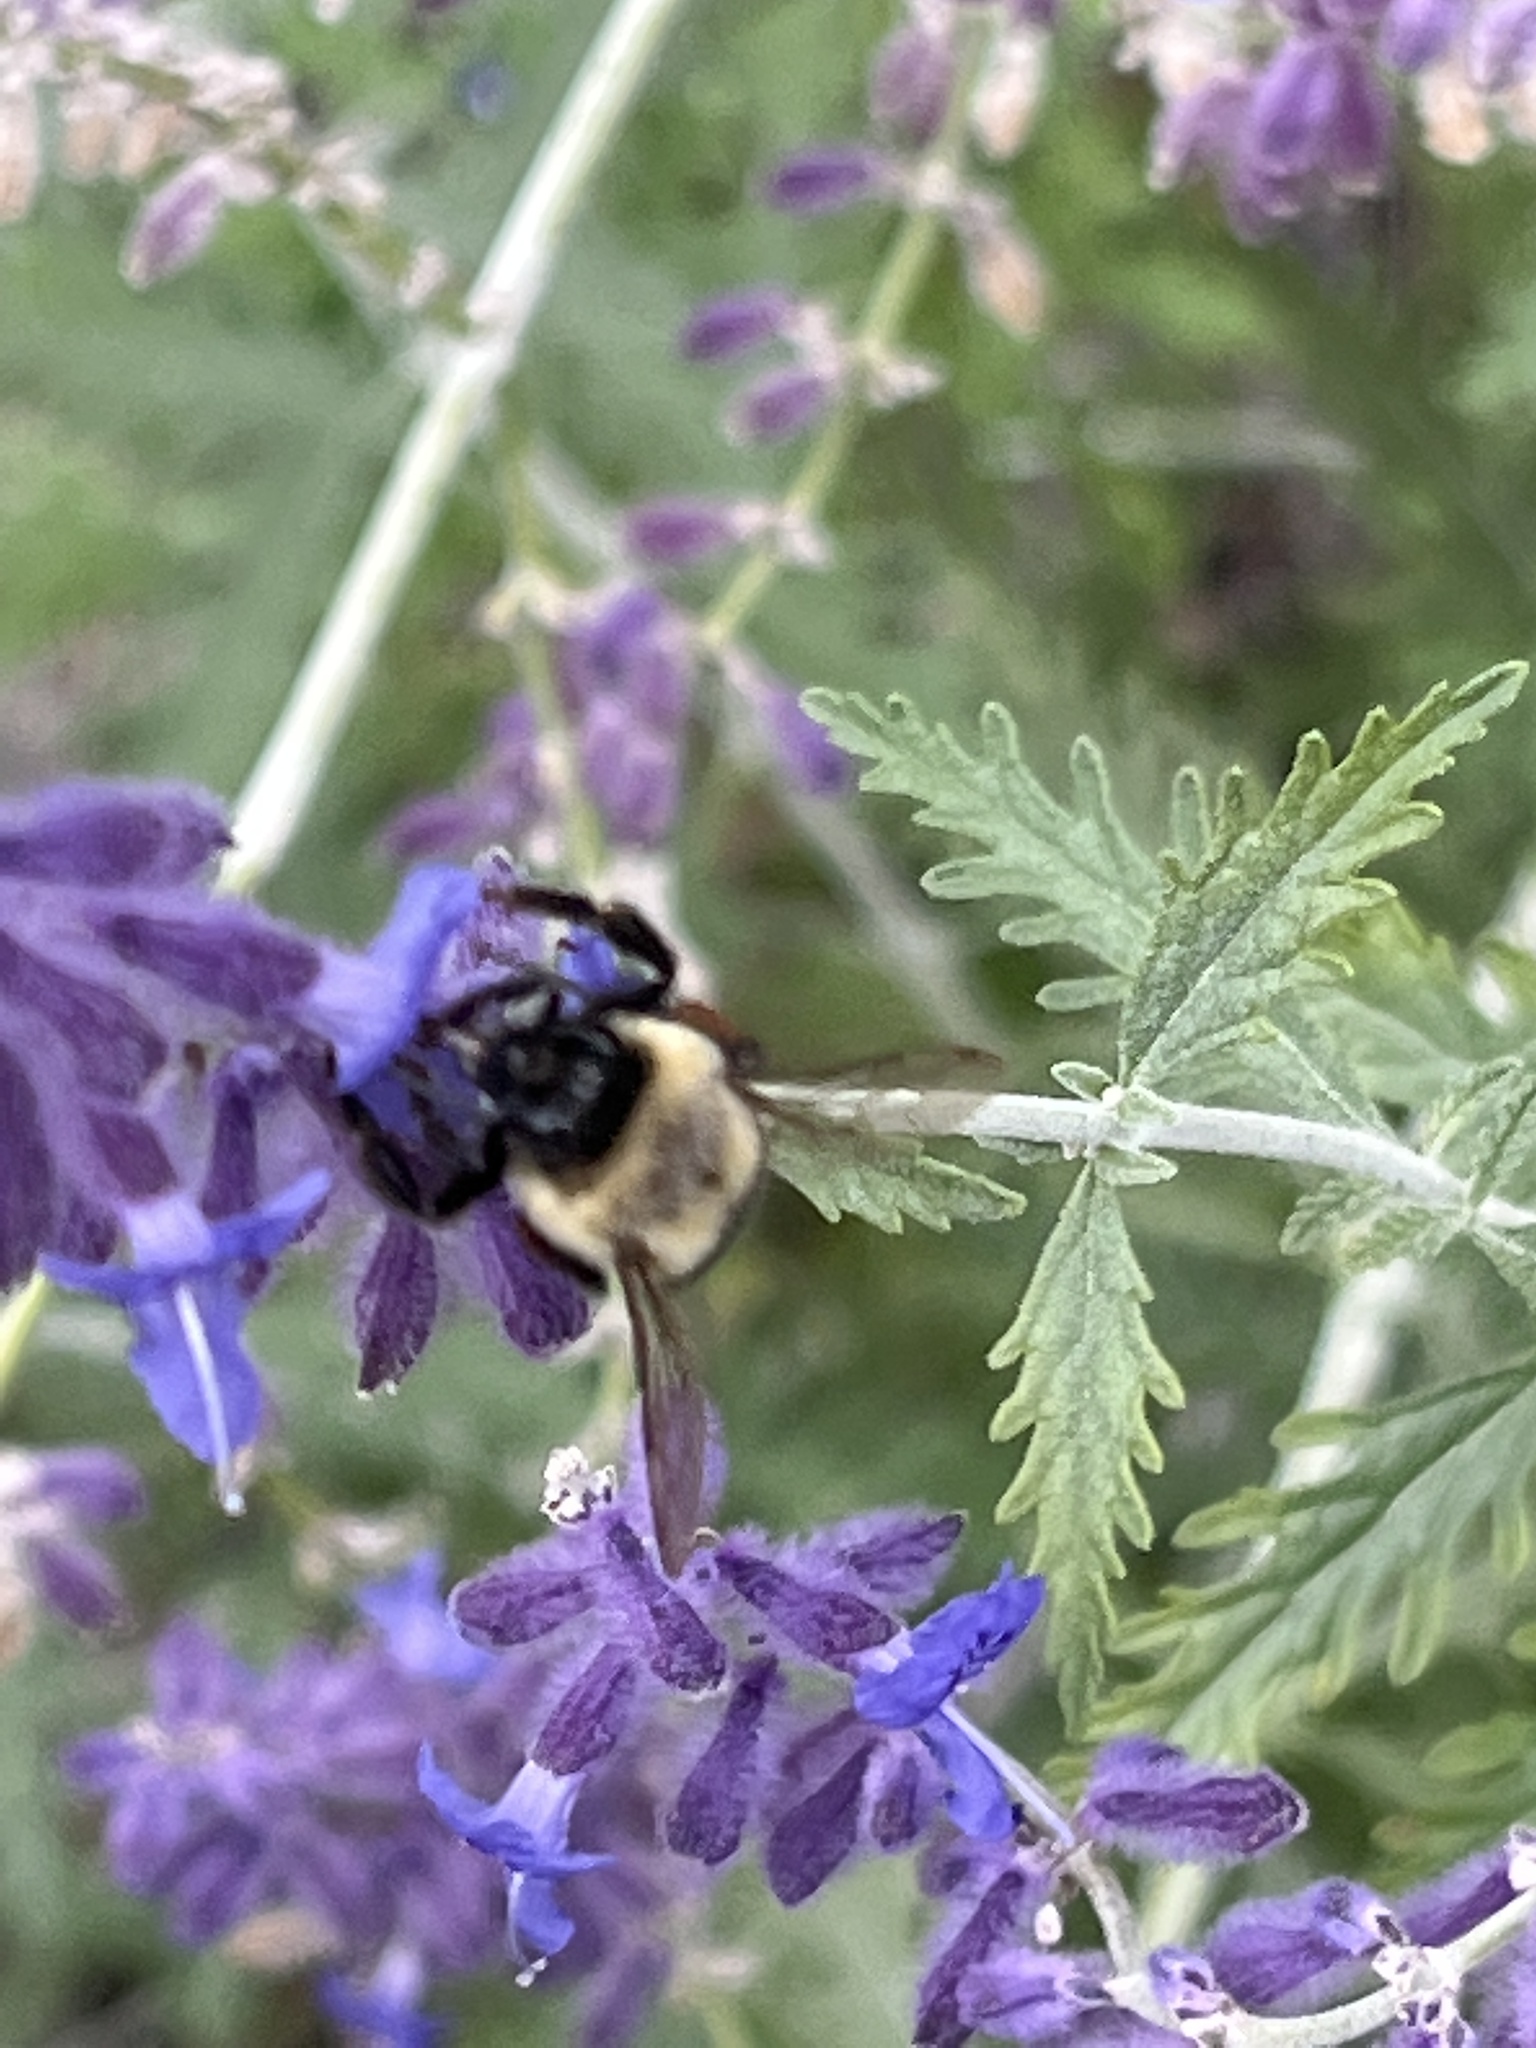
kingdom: Animalia
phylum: Arthropoda
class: Insecta
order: Hymenoptera
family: Apidae
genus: Bombus
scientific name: Bombus impatiens
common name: Common eastern bumble bee
